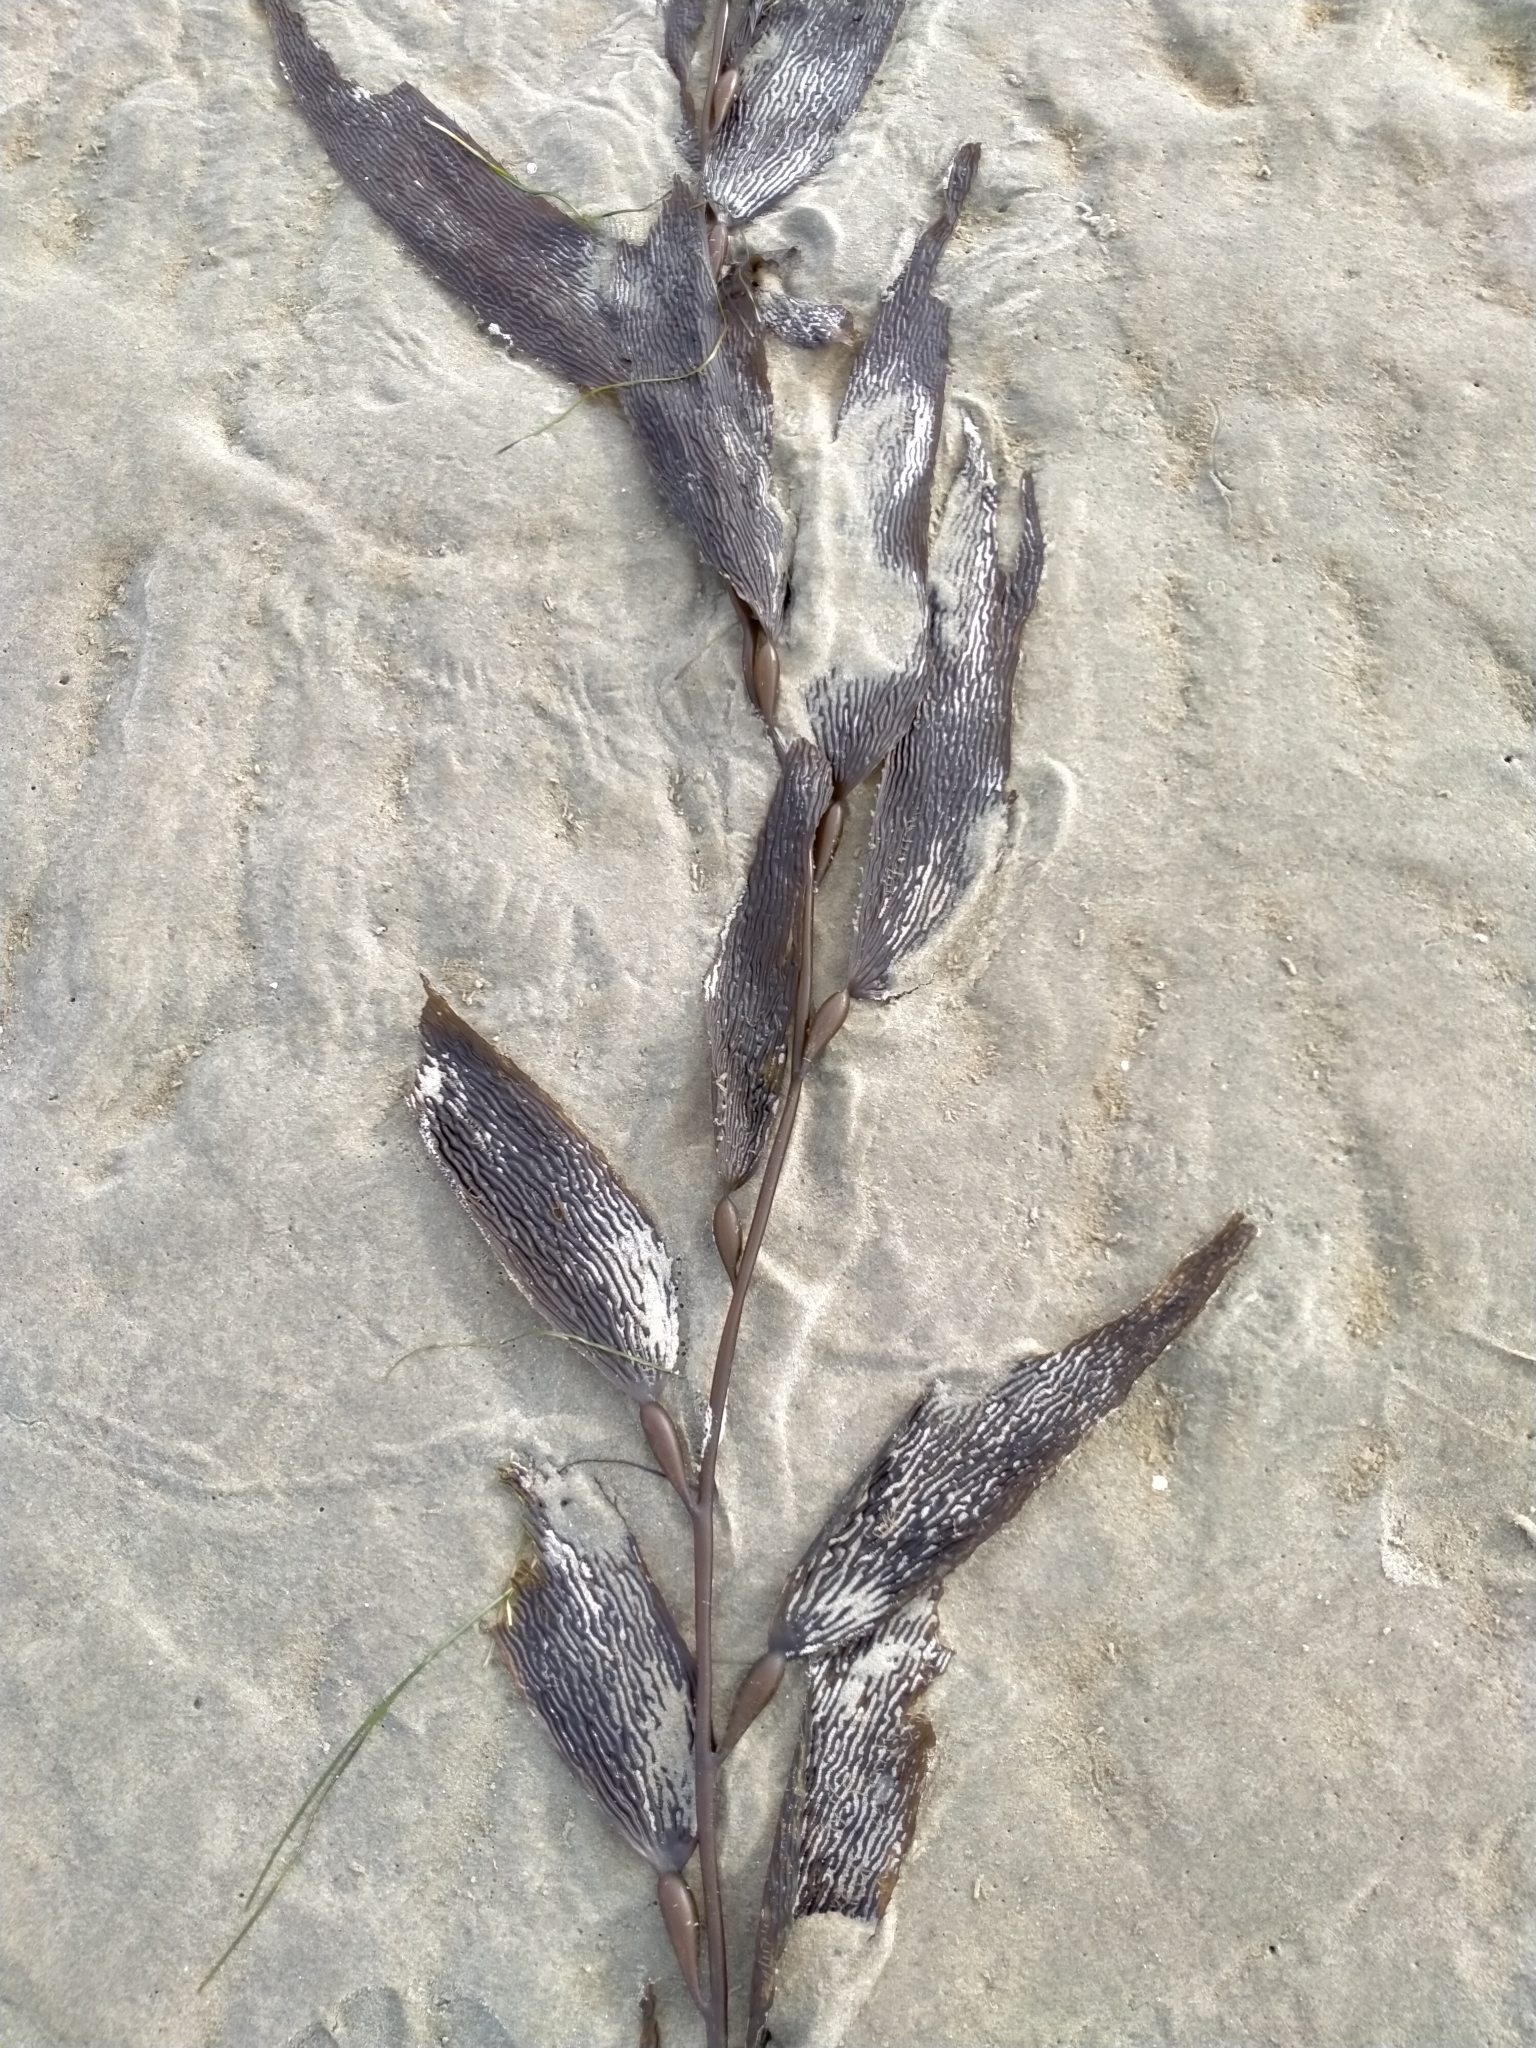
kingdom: Chromista
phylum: Ochrophyta
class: Phaeophyceae
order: Laminariales
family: Laminariaceae
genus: Macrocystis
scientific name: Macrocystis pyrifera
